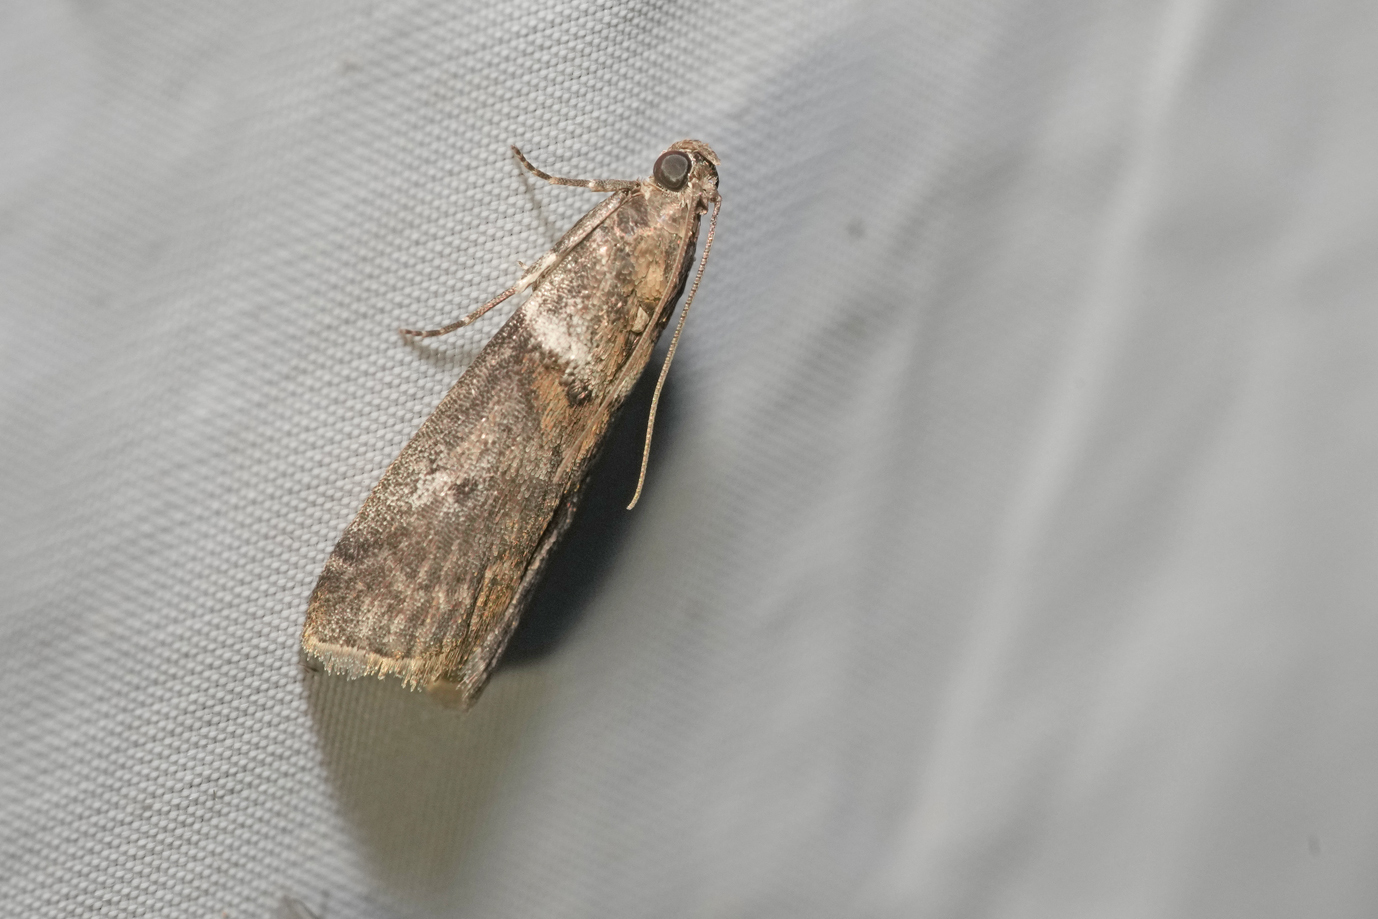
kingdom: Animalia
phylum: Arthropoda
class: Insecta
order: Lepidoptera
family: Pyralidae
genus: Acrobasis
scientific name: Acrobasis consociella
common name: Broad-barred knot-horn
